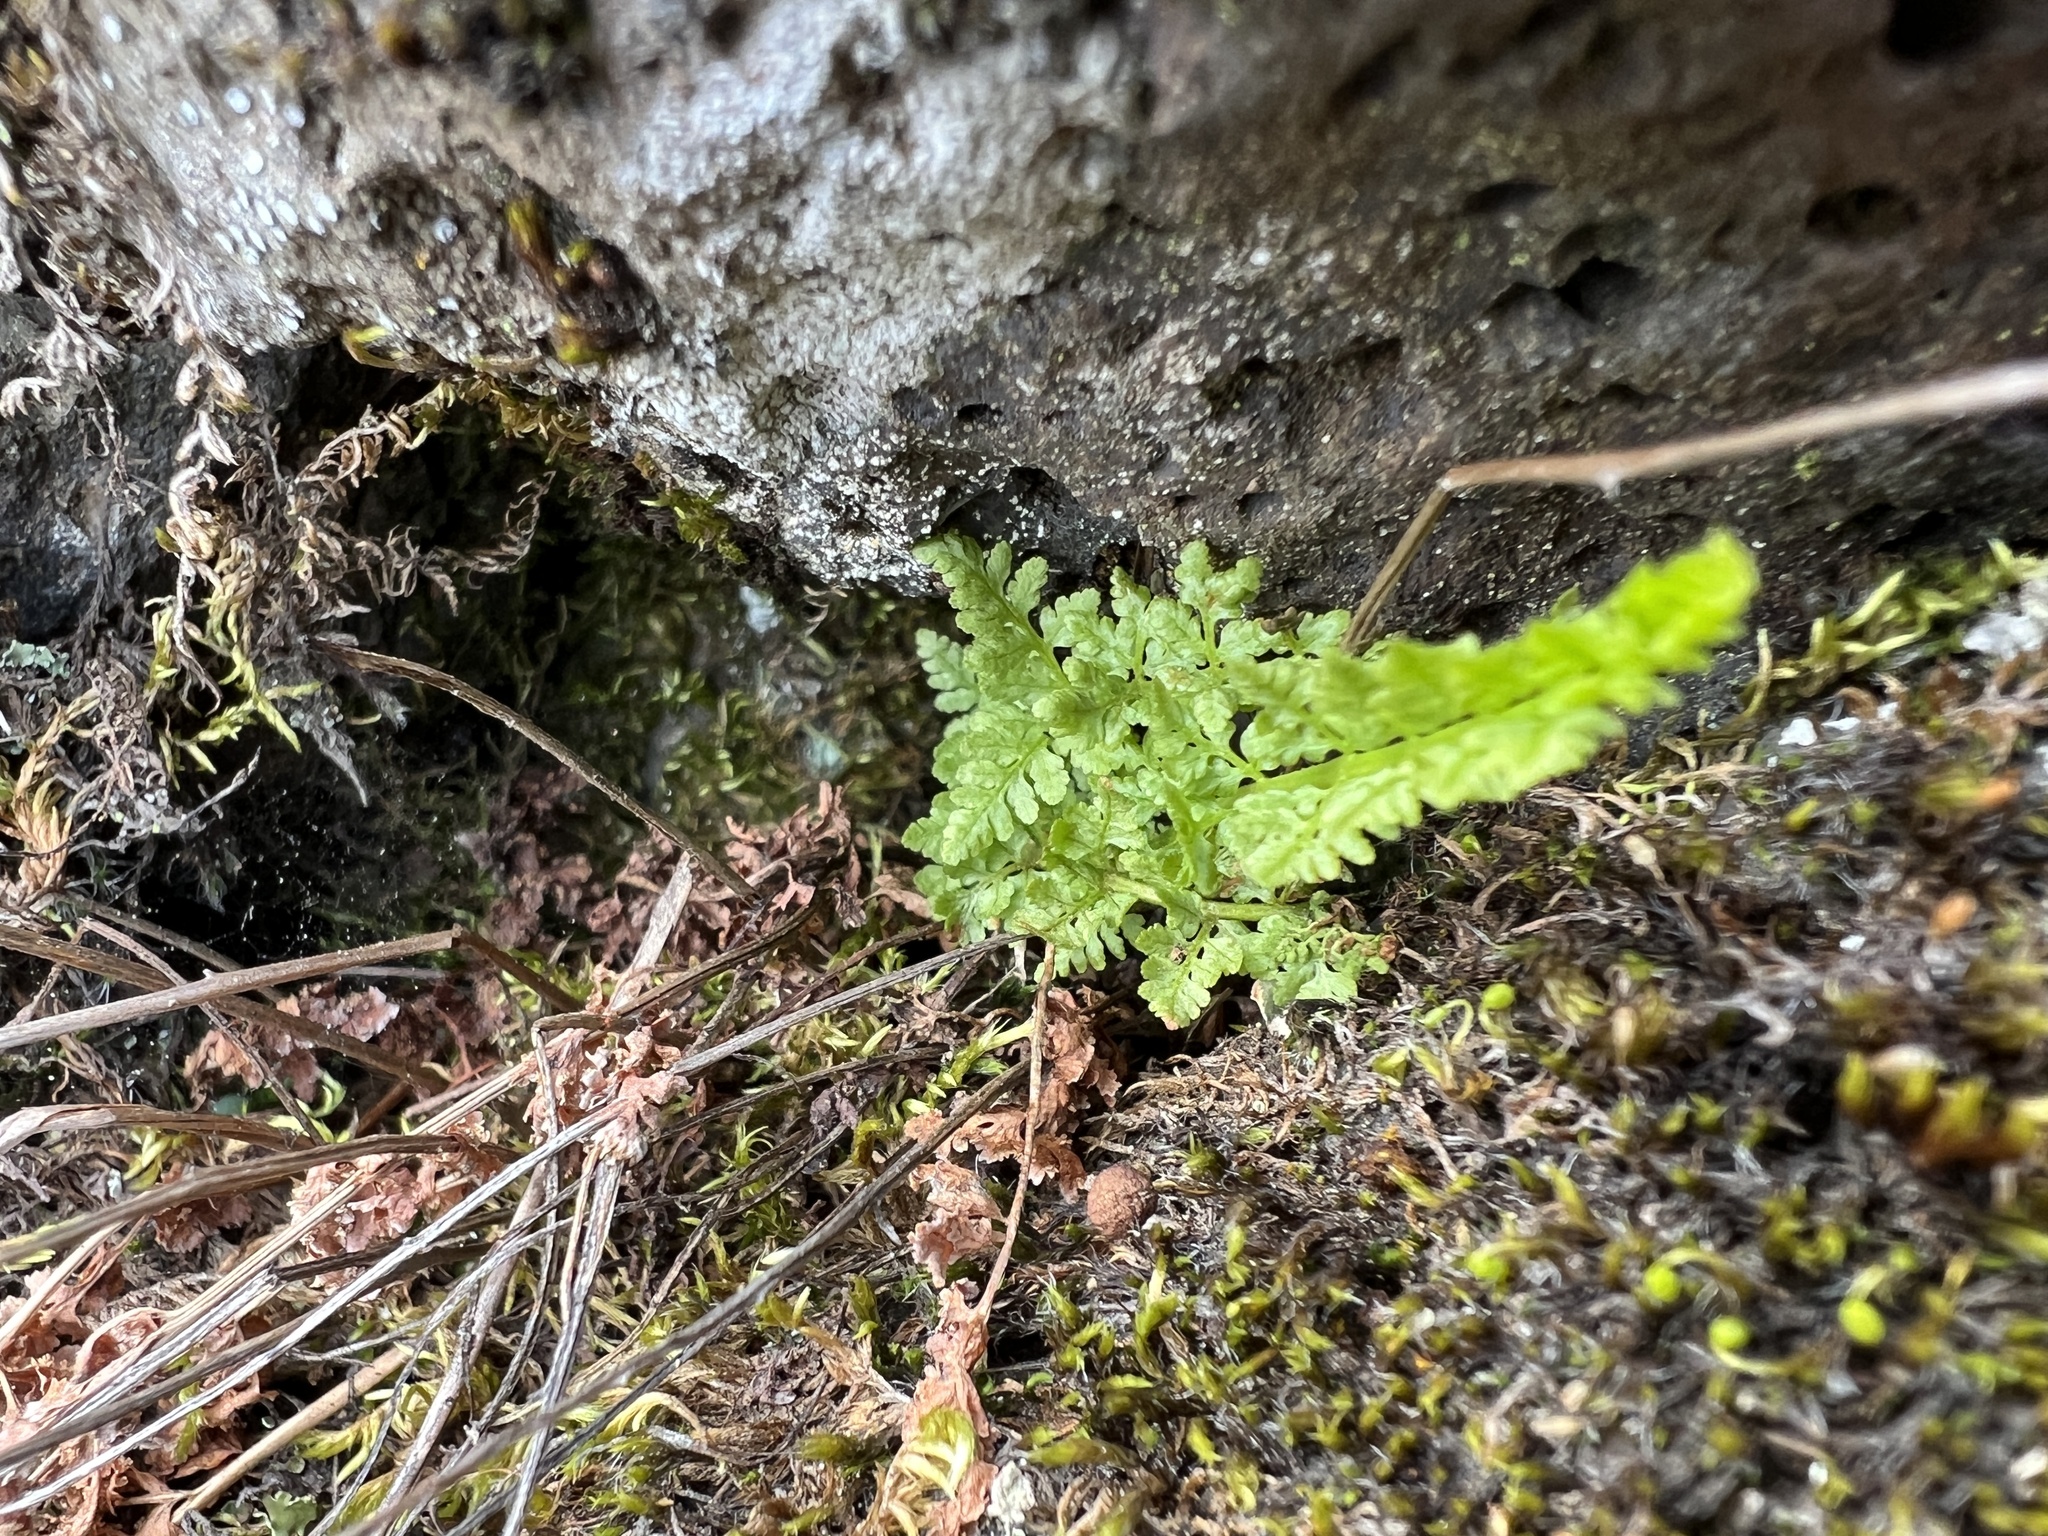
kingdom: Plantae
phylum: Tracheophyta
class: Polypodiopsida
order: Polypodiales
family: Woodsiaceae
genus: Physematium
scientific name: Physematium oreganum
